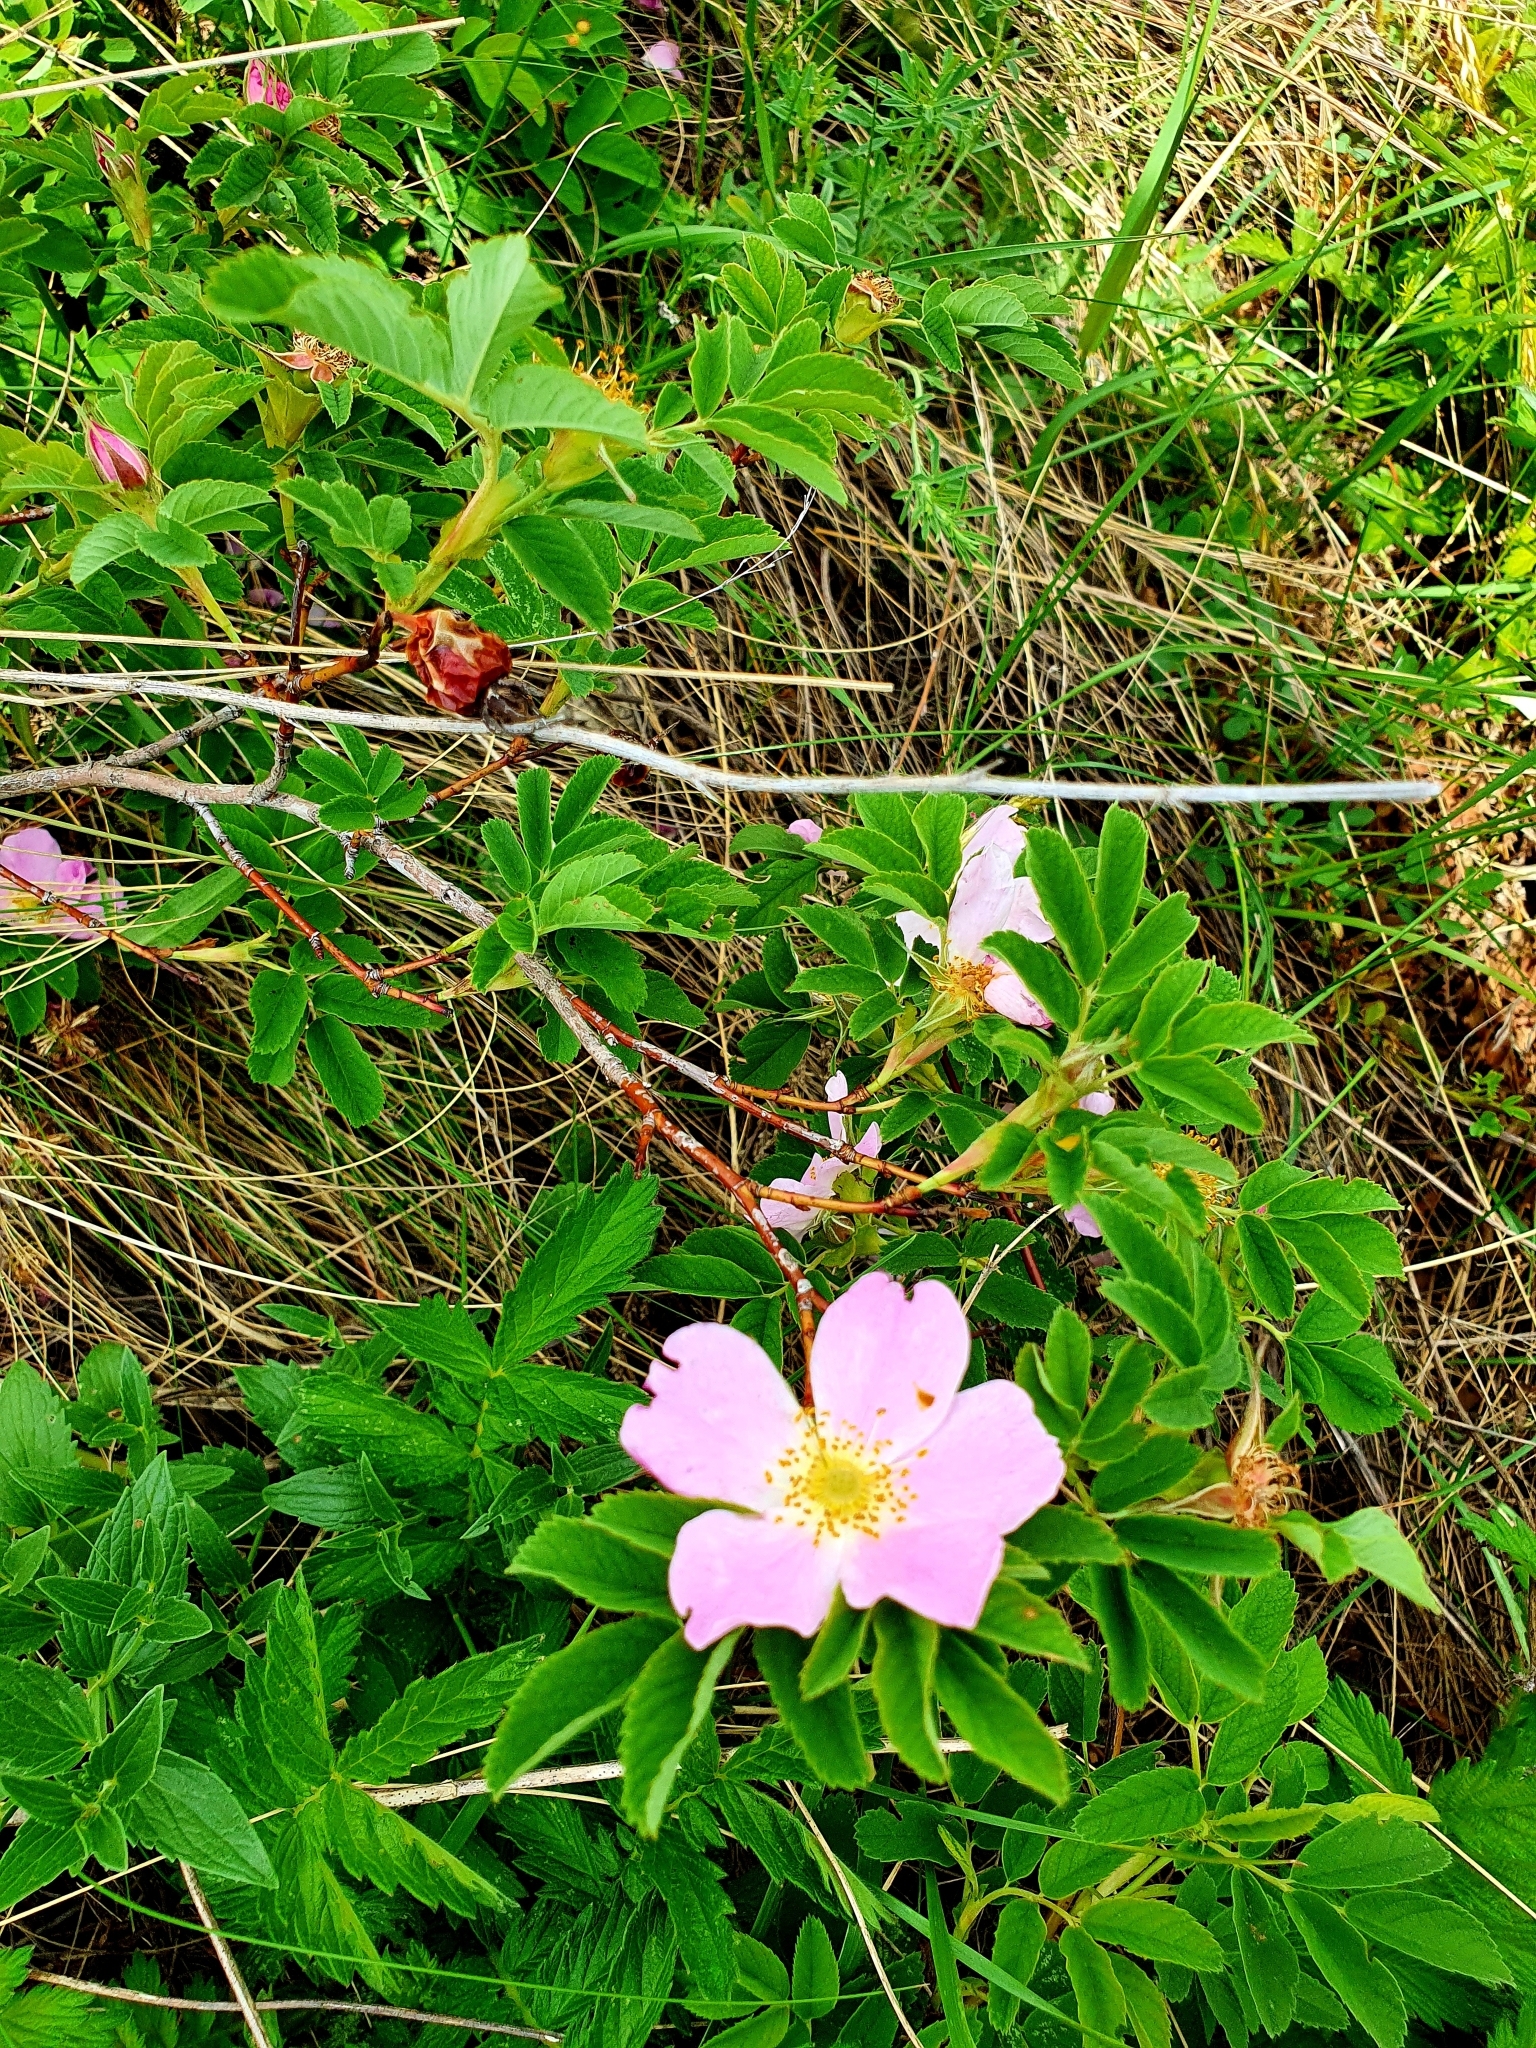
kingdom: Plantae
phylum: Tracheophyta
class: Magnoliopsida
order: Rosales
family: Rosaceae
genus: Rosa
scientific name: Rosa majalis
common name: Cinnamon rose
